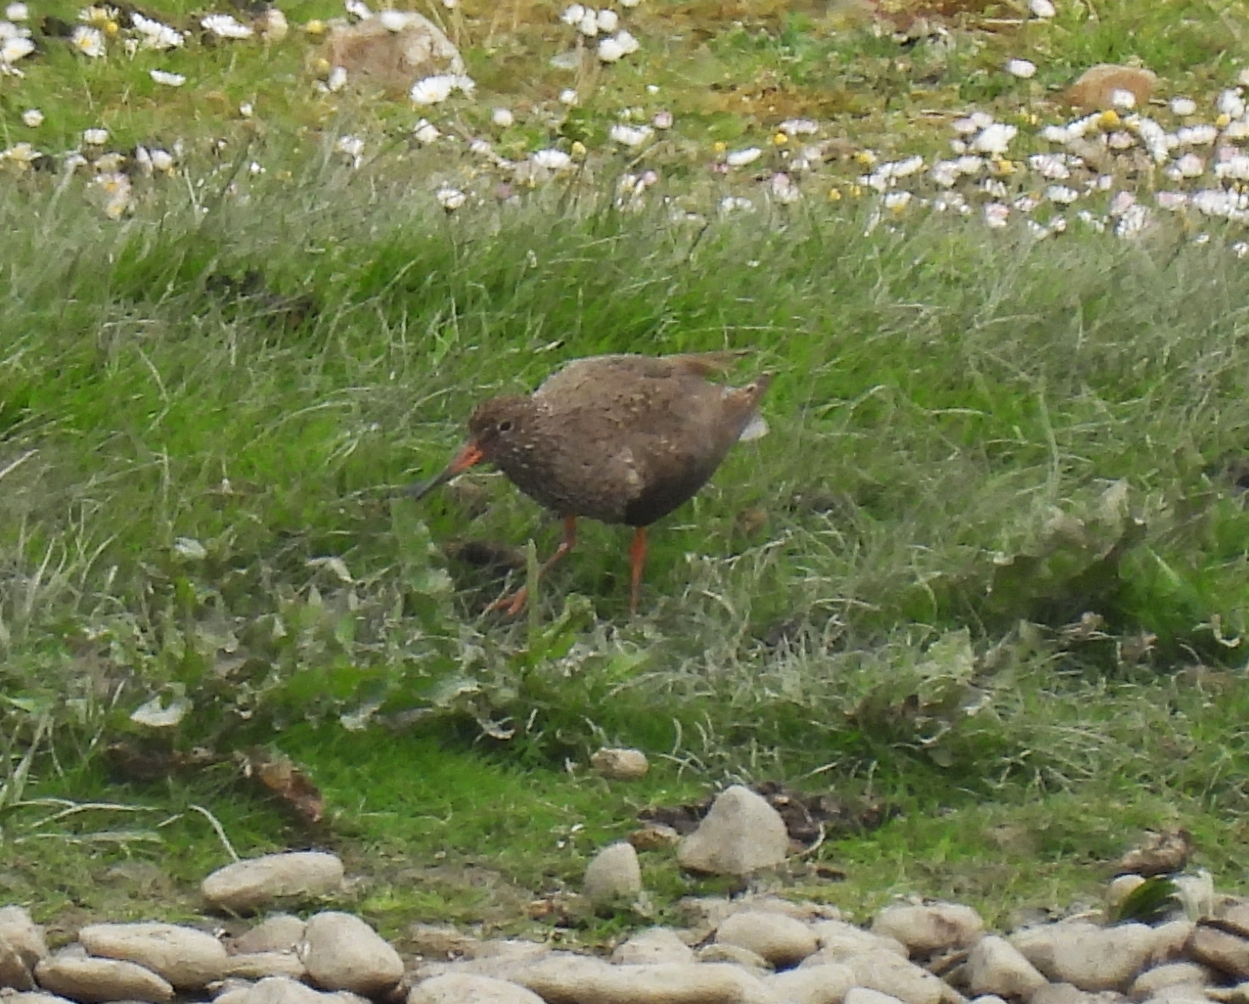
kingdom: Animalia
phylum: Chordata
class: Aves
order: Charadriiformes
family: Scolopacidae
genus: Tringa
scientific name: Tringa totanus
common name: Common redshank
